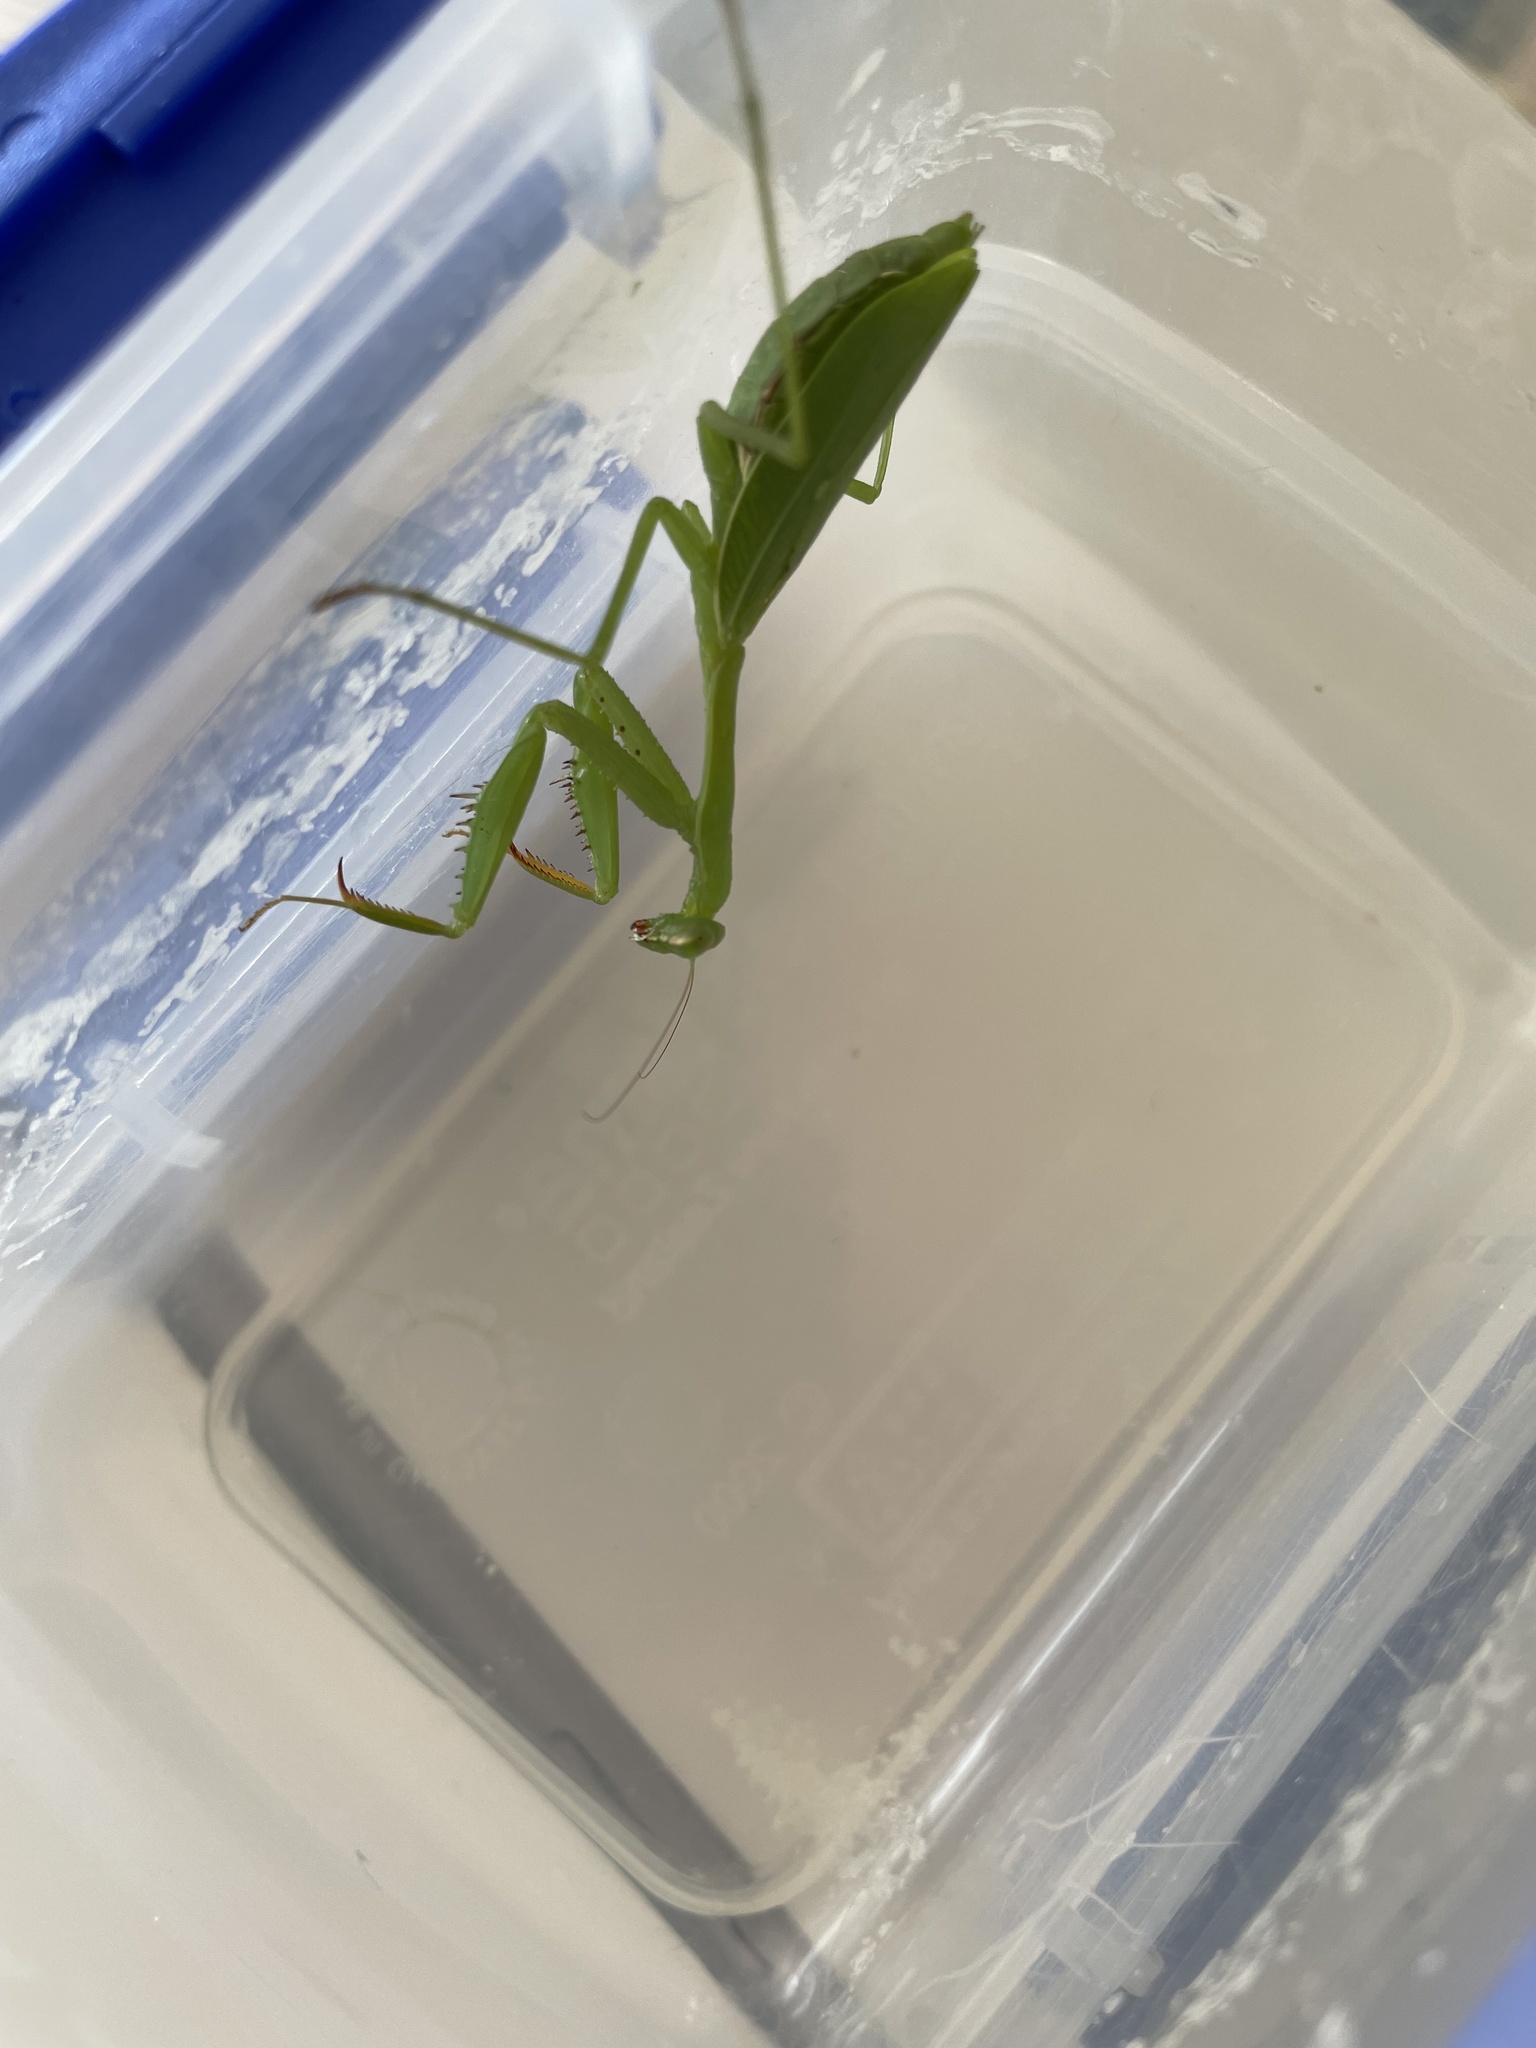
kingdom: Animalia
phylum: Arthropoda
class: Insecta
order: Mantodea
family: Miomantidae
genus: Miomantis
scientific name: Miomantis caffra
